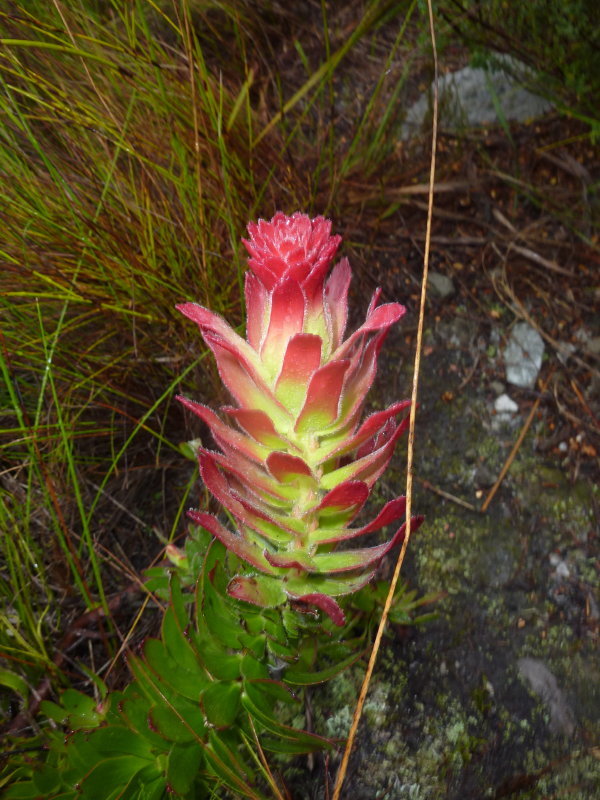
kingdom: Plantae
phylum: Tracheophyta
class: Magnoliopsida
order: Proteales
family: Proteaceae
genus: Mimetes
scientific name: Mimetes cucullatus
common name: Common pagoda
